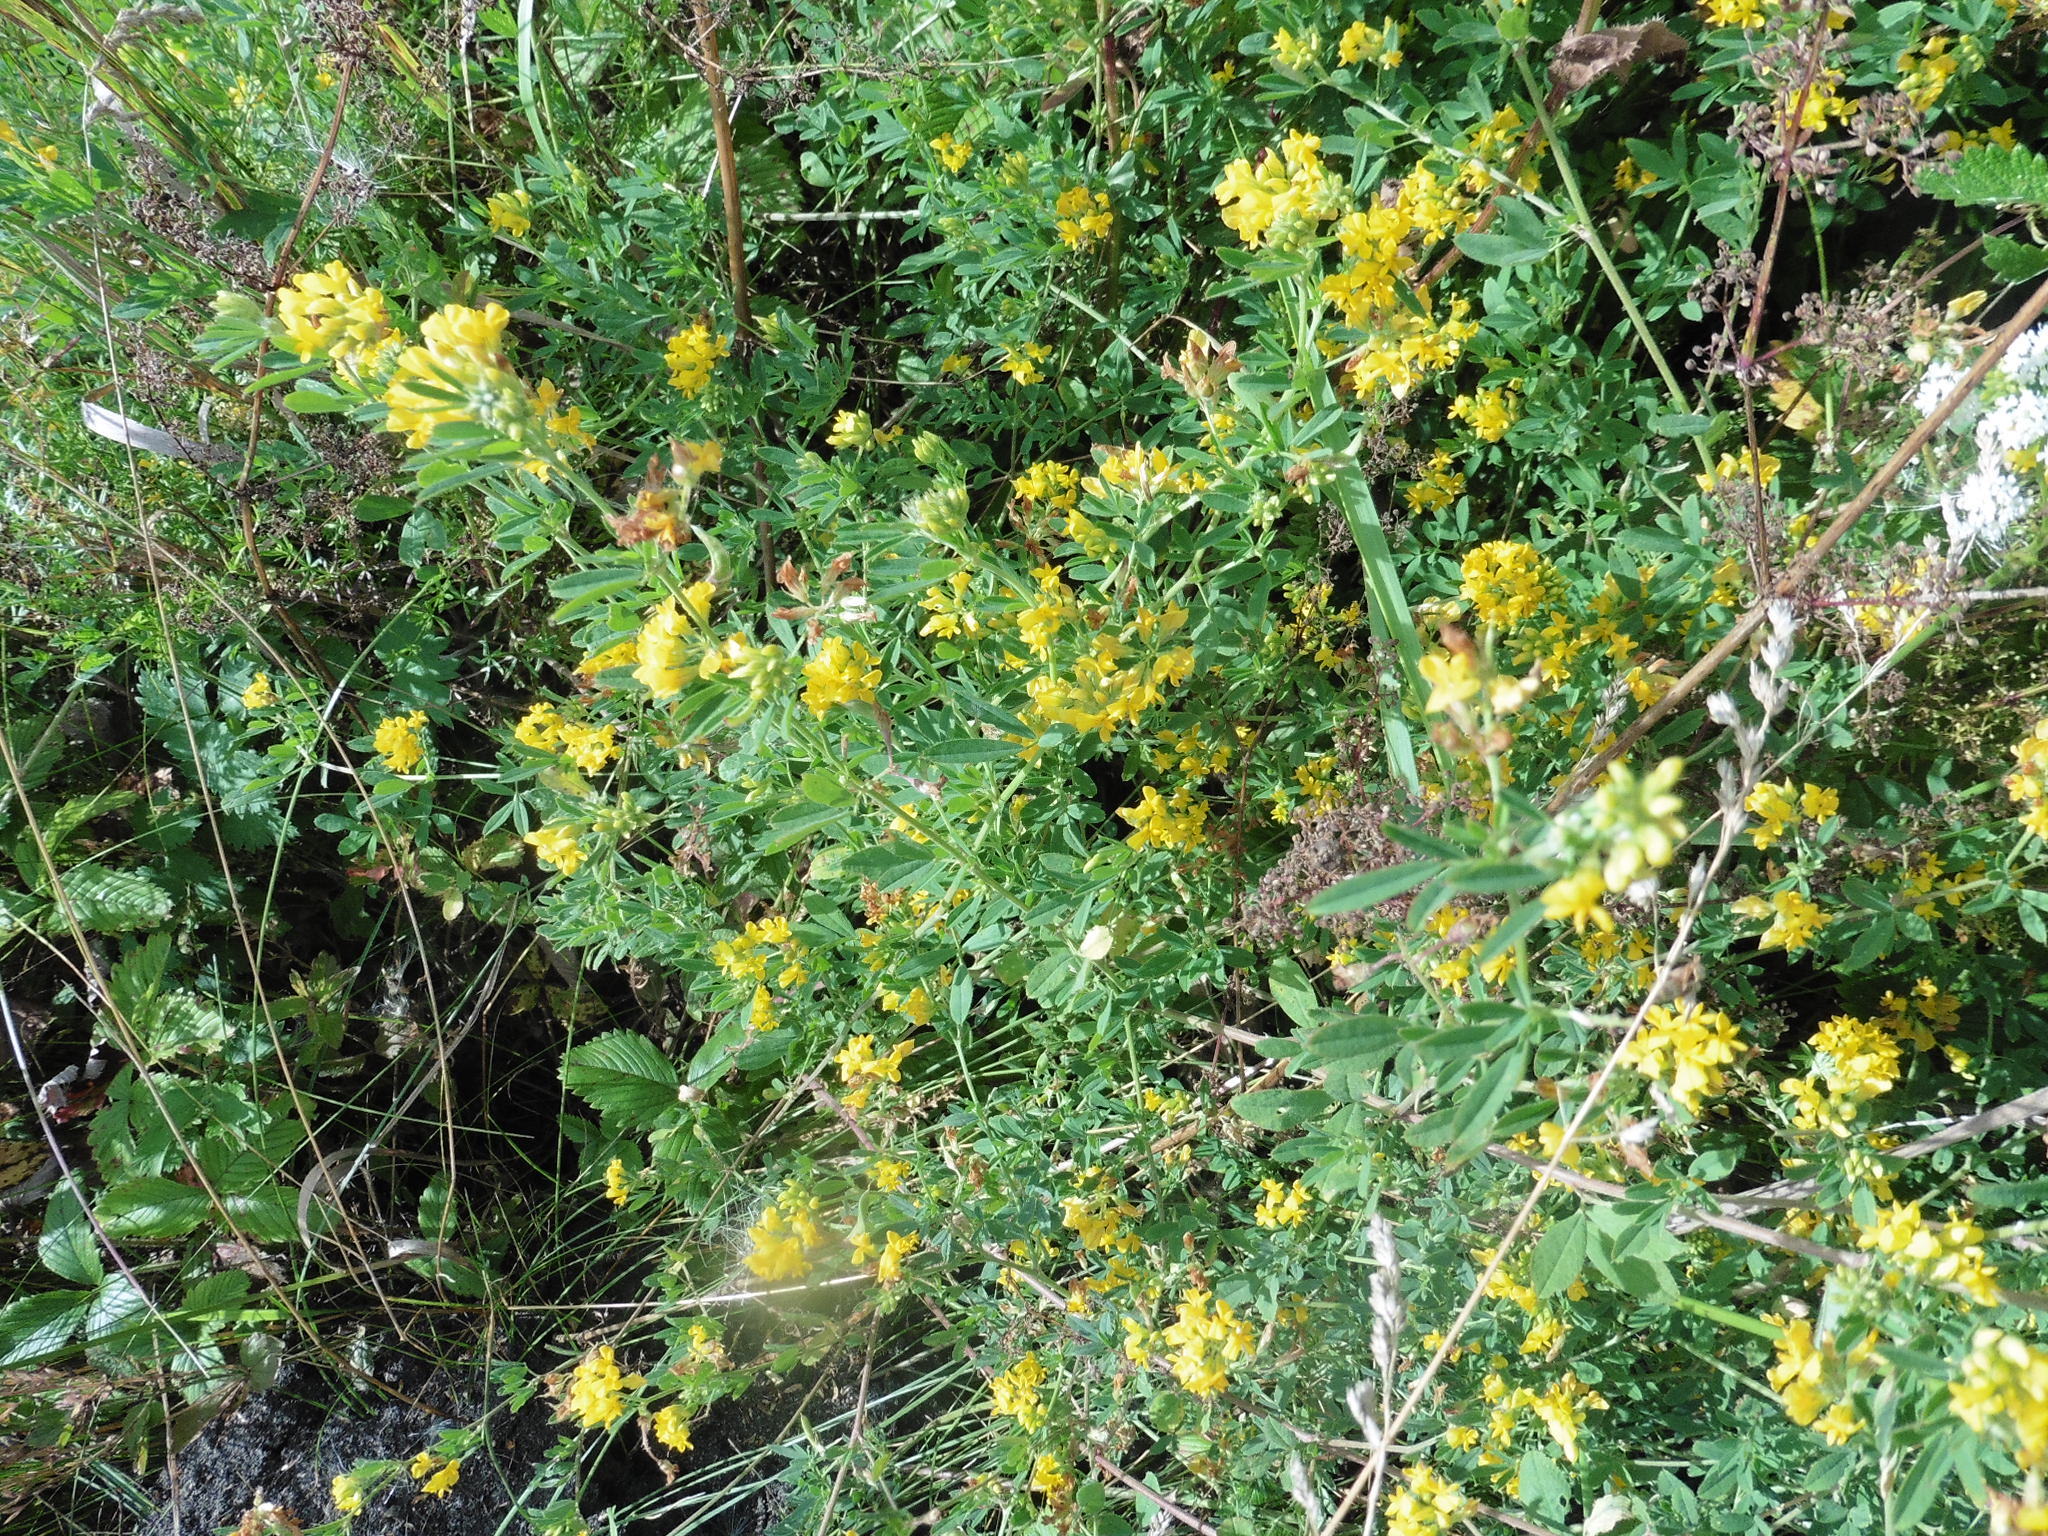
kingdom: Plantae
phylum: Tracheophyta
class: Magnoliopsida
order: Fabales
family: Fabaceae
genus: Medicago
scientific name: Medicago falcata
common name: Sickle medick
